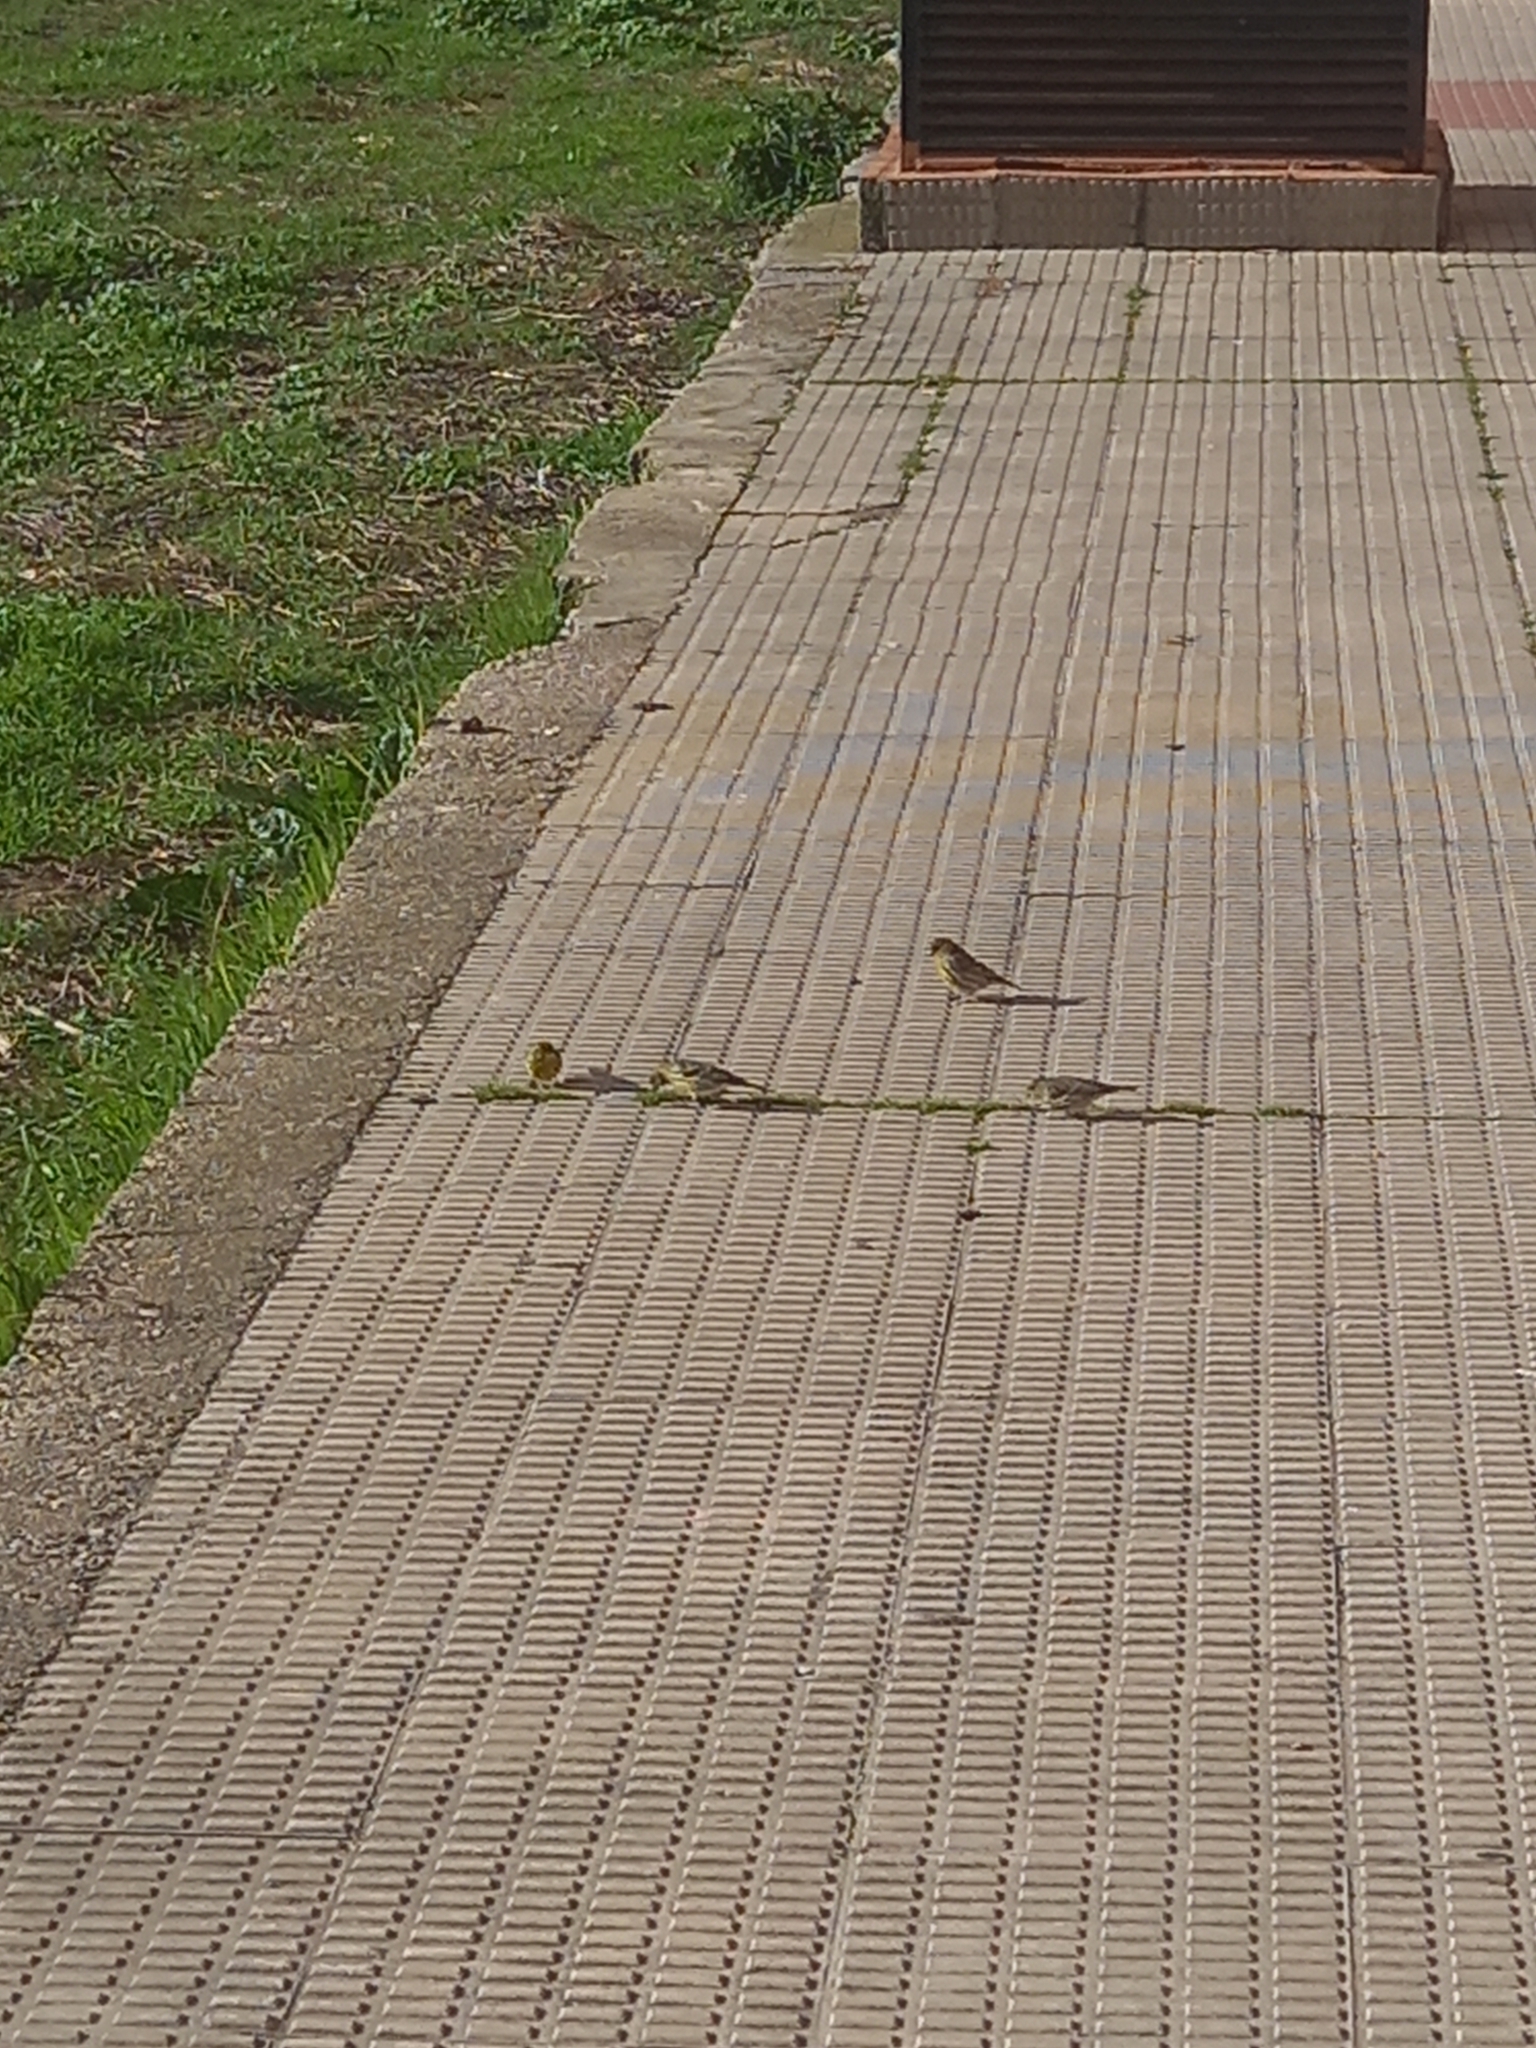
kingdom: Animalia
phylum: Chordata
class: Aves
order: Passeriformes
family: Fringillidae
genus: Serinus
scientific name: Serinus serinus
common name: European serin
